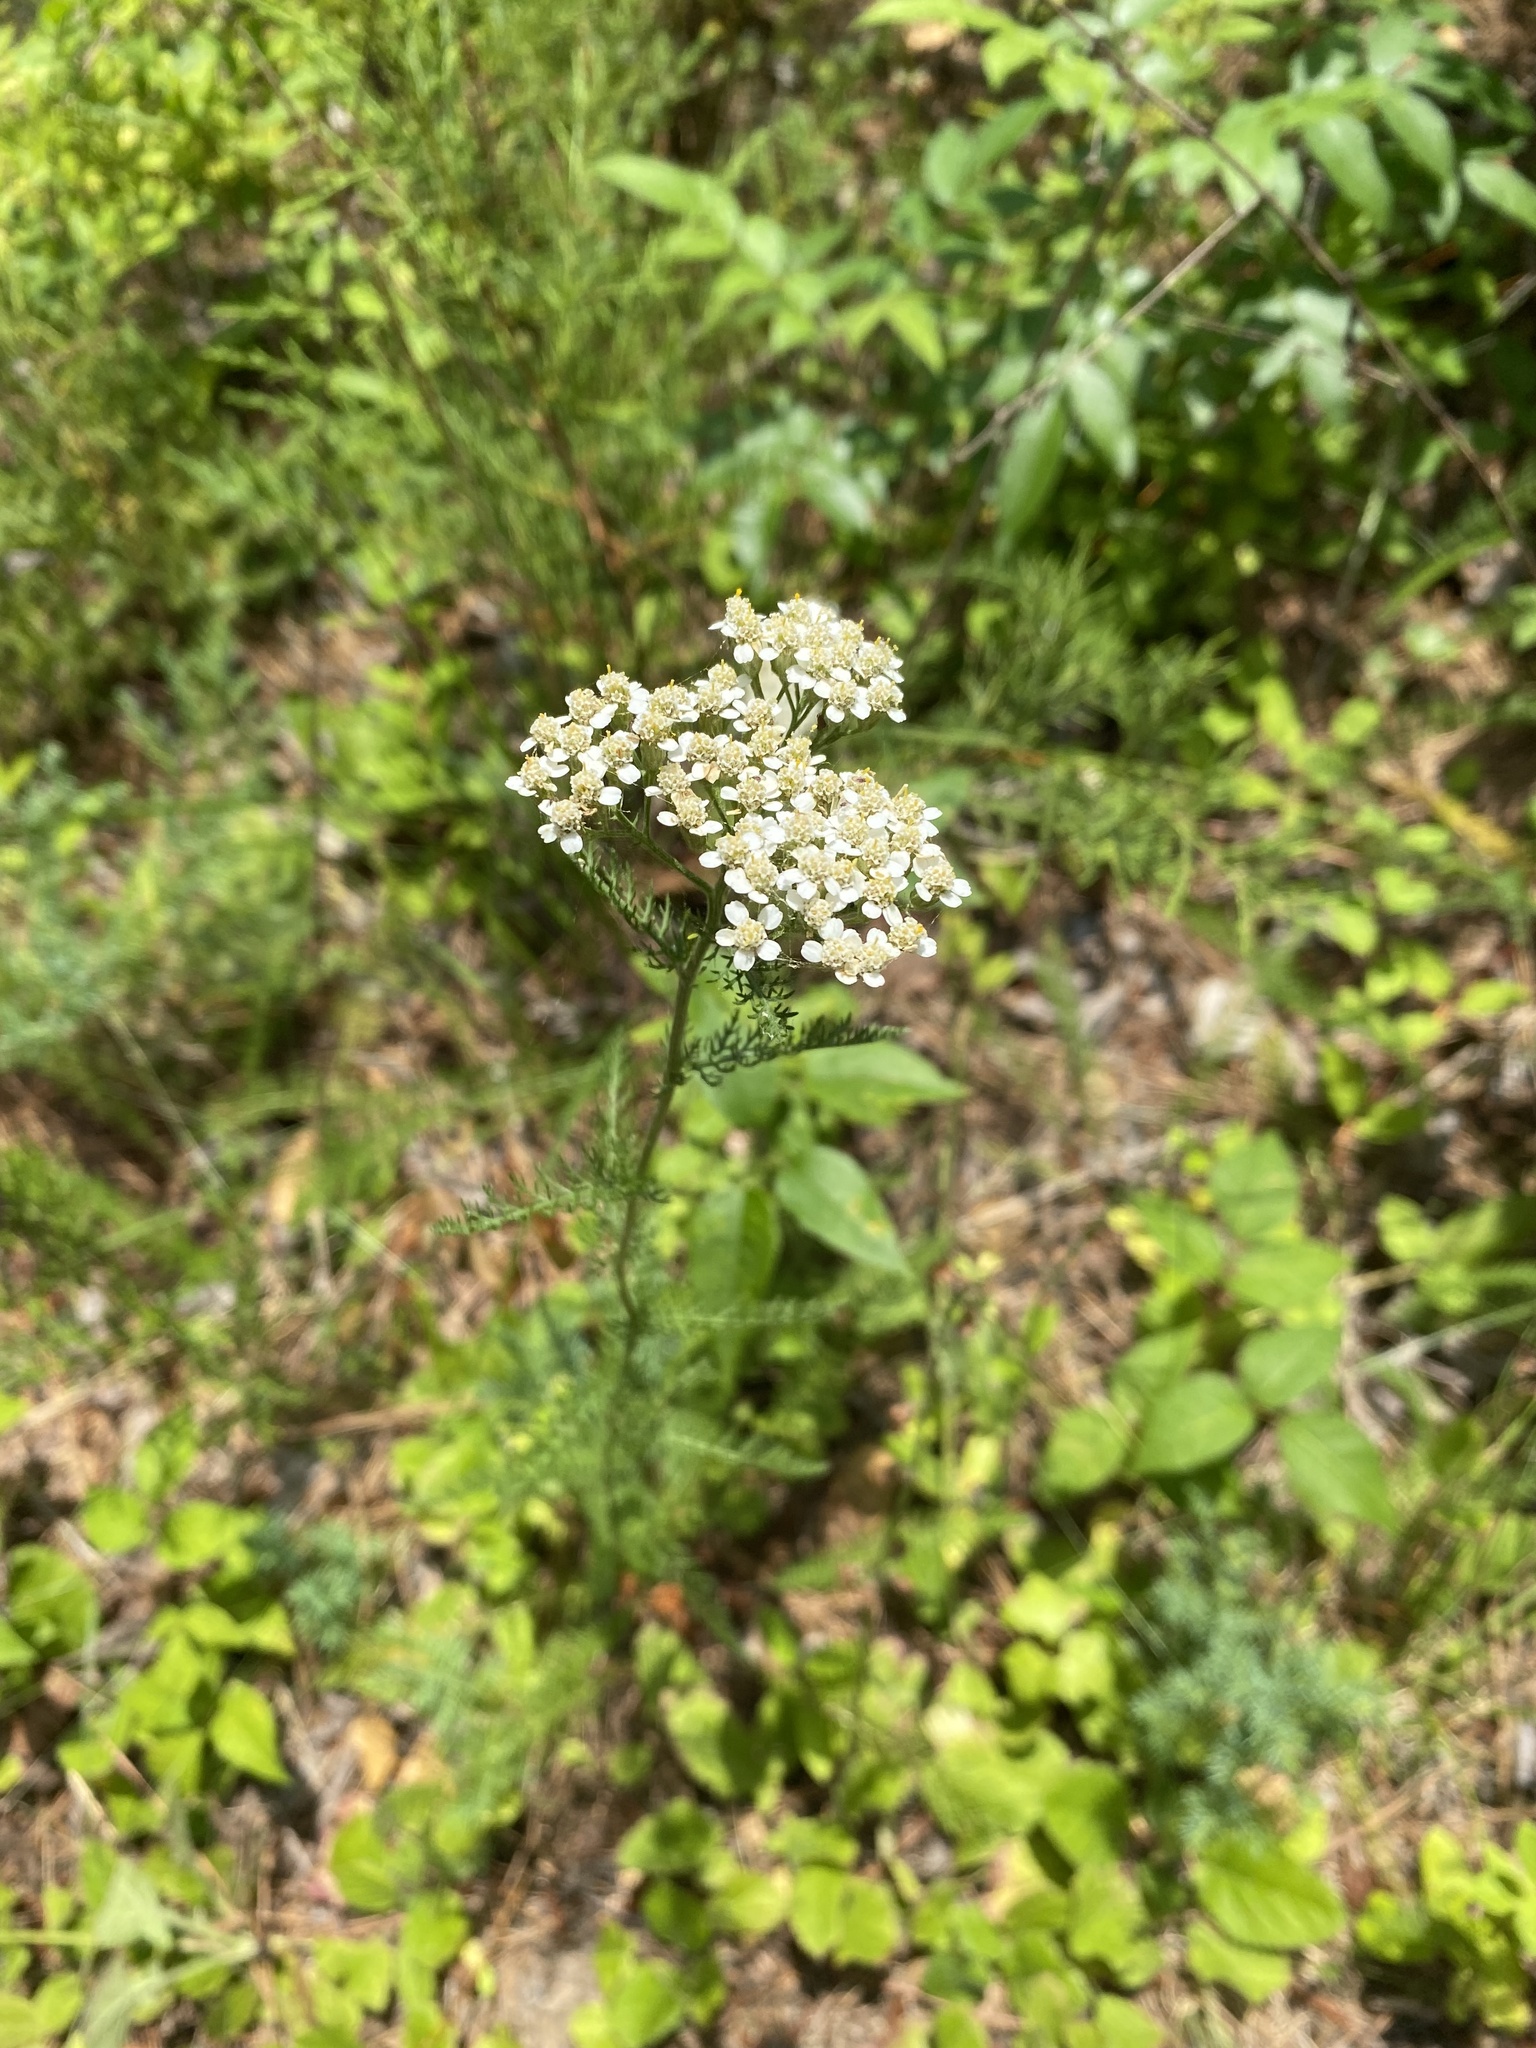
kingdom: Plantae
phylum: Tracheophyta
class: Magnoliopsida
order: Asterales
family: Asteraceae
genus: Achillea
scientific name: Achillea millefolium
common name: Yarrow
